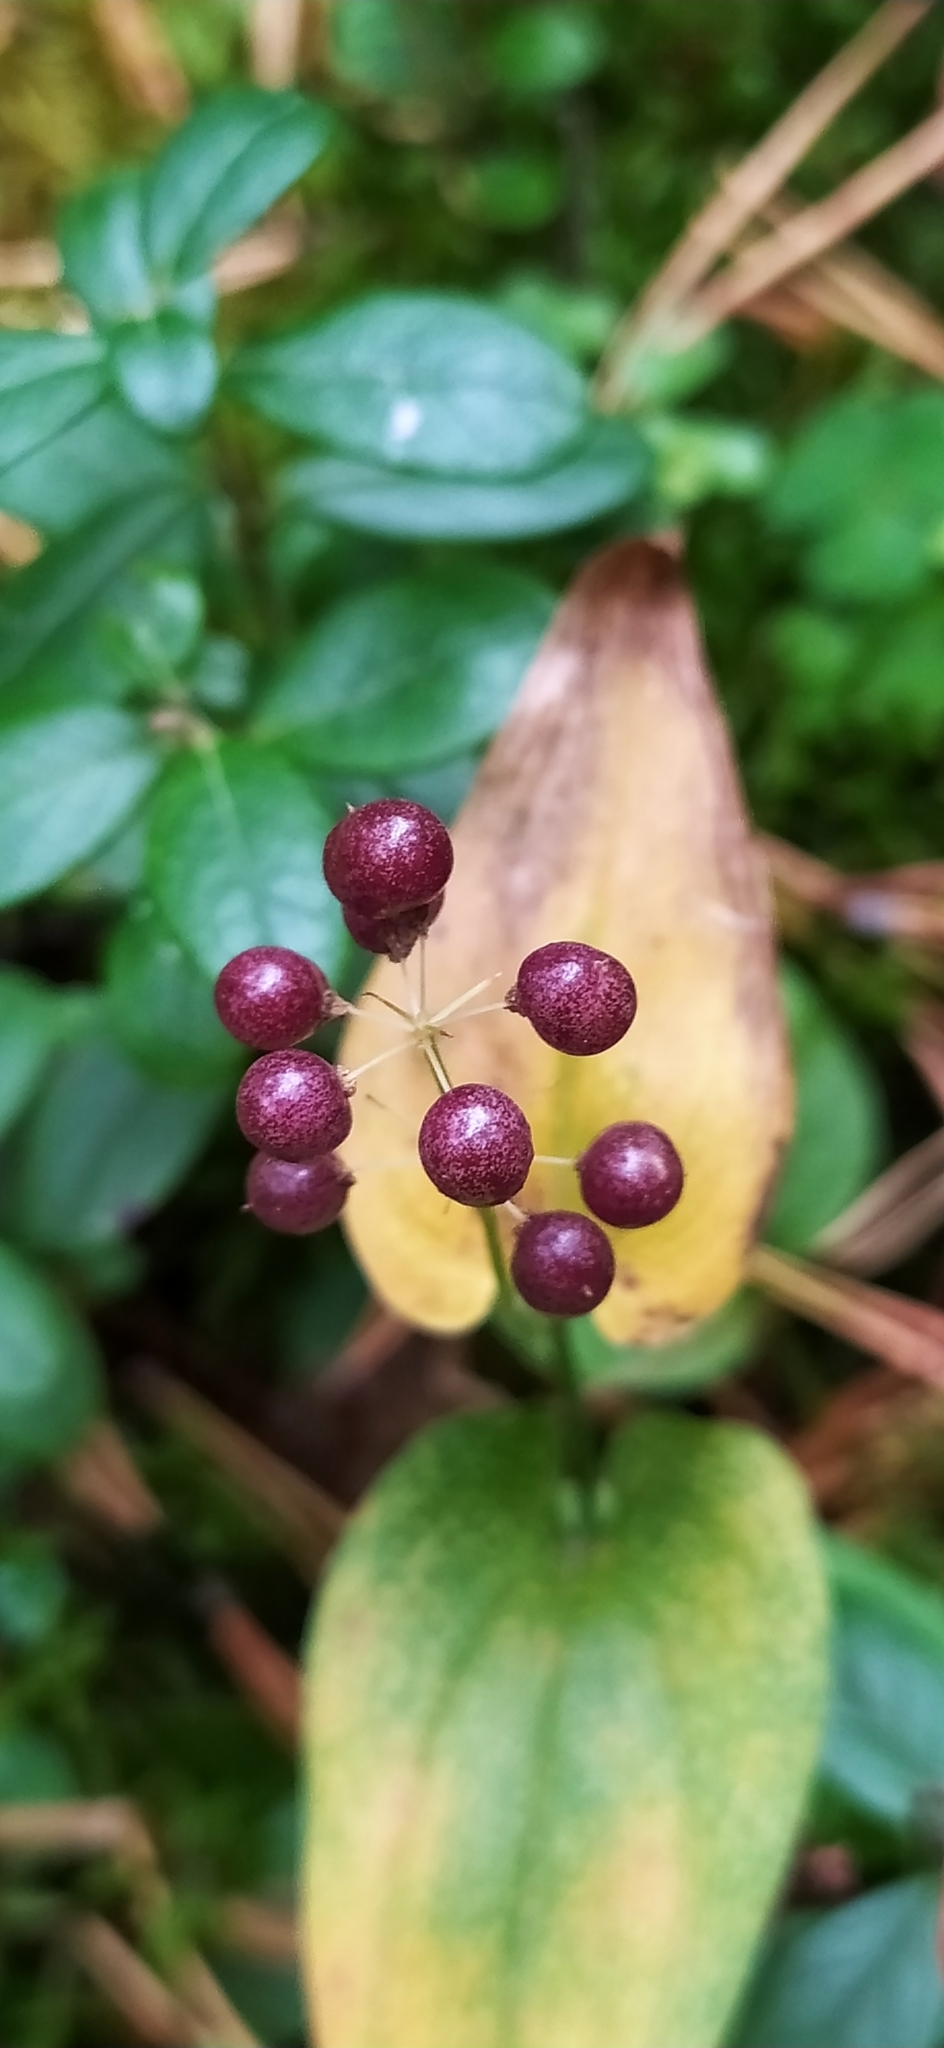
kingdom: Plantae
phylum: Tracheophyta
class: Liliopsida
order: Asparagales
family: Asparagaceae
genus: Maianthemum
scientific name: Maianthemum bifolium
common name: May lily
